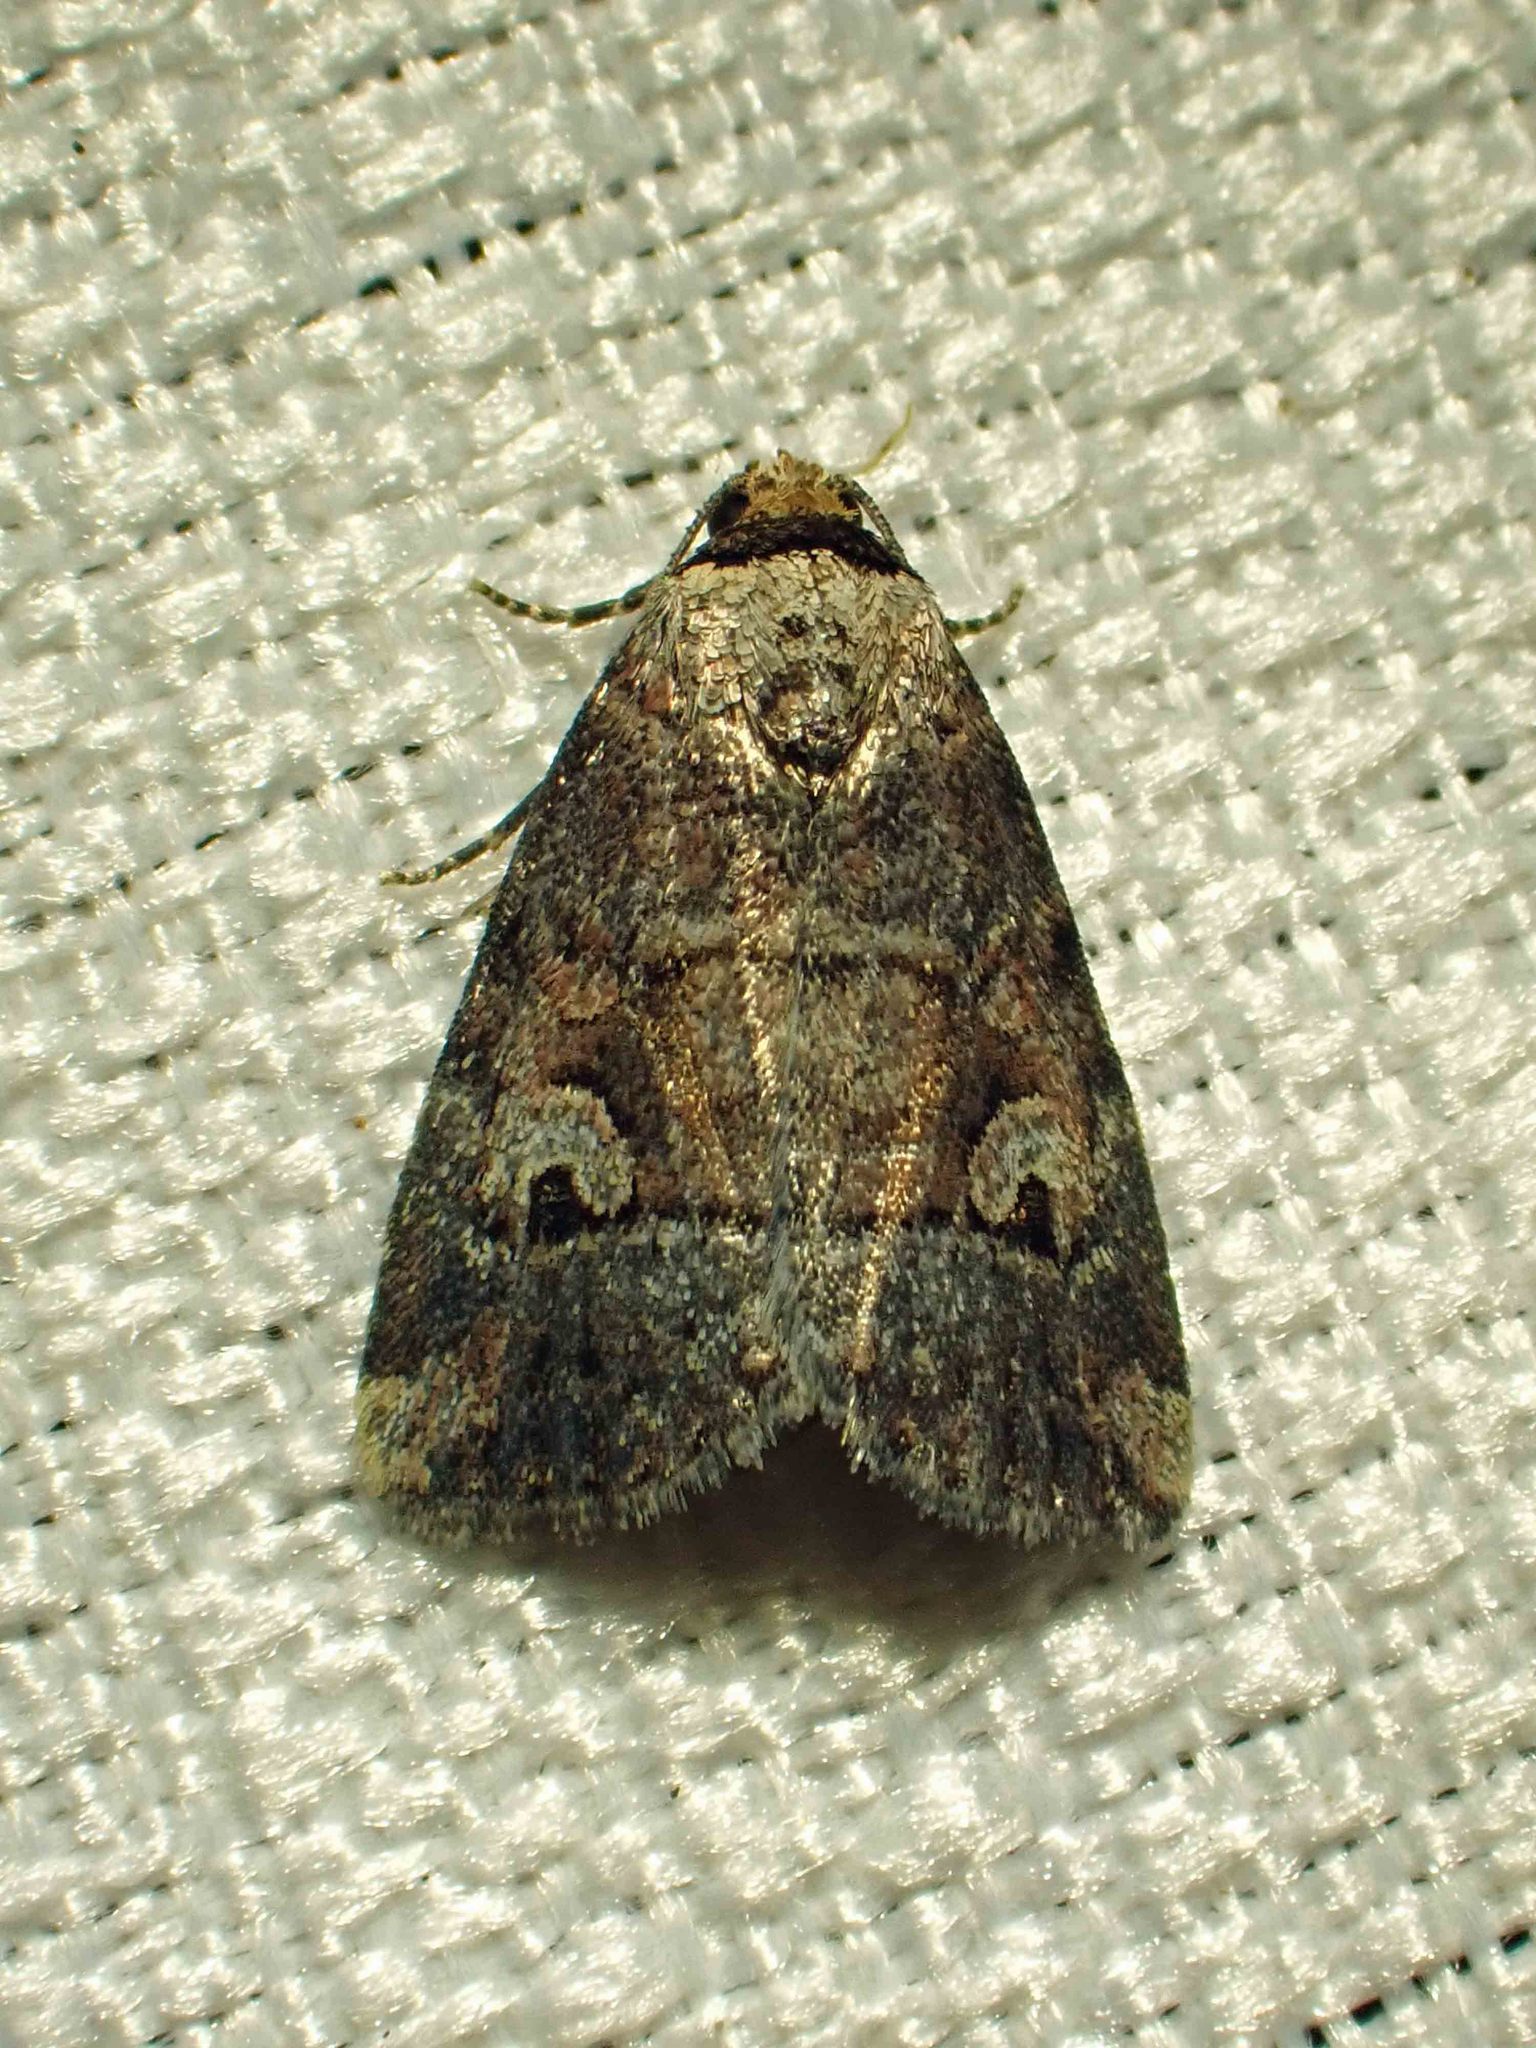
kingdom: Animalia
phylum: Arthropoda
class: Insecta
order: Lepidoptera
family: Noctuidae
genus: Elaphria
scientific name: Elaphria alapallida
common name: Pale-winged midget
